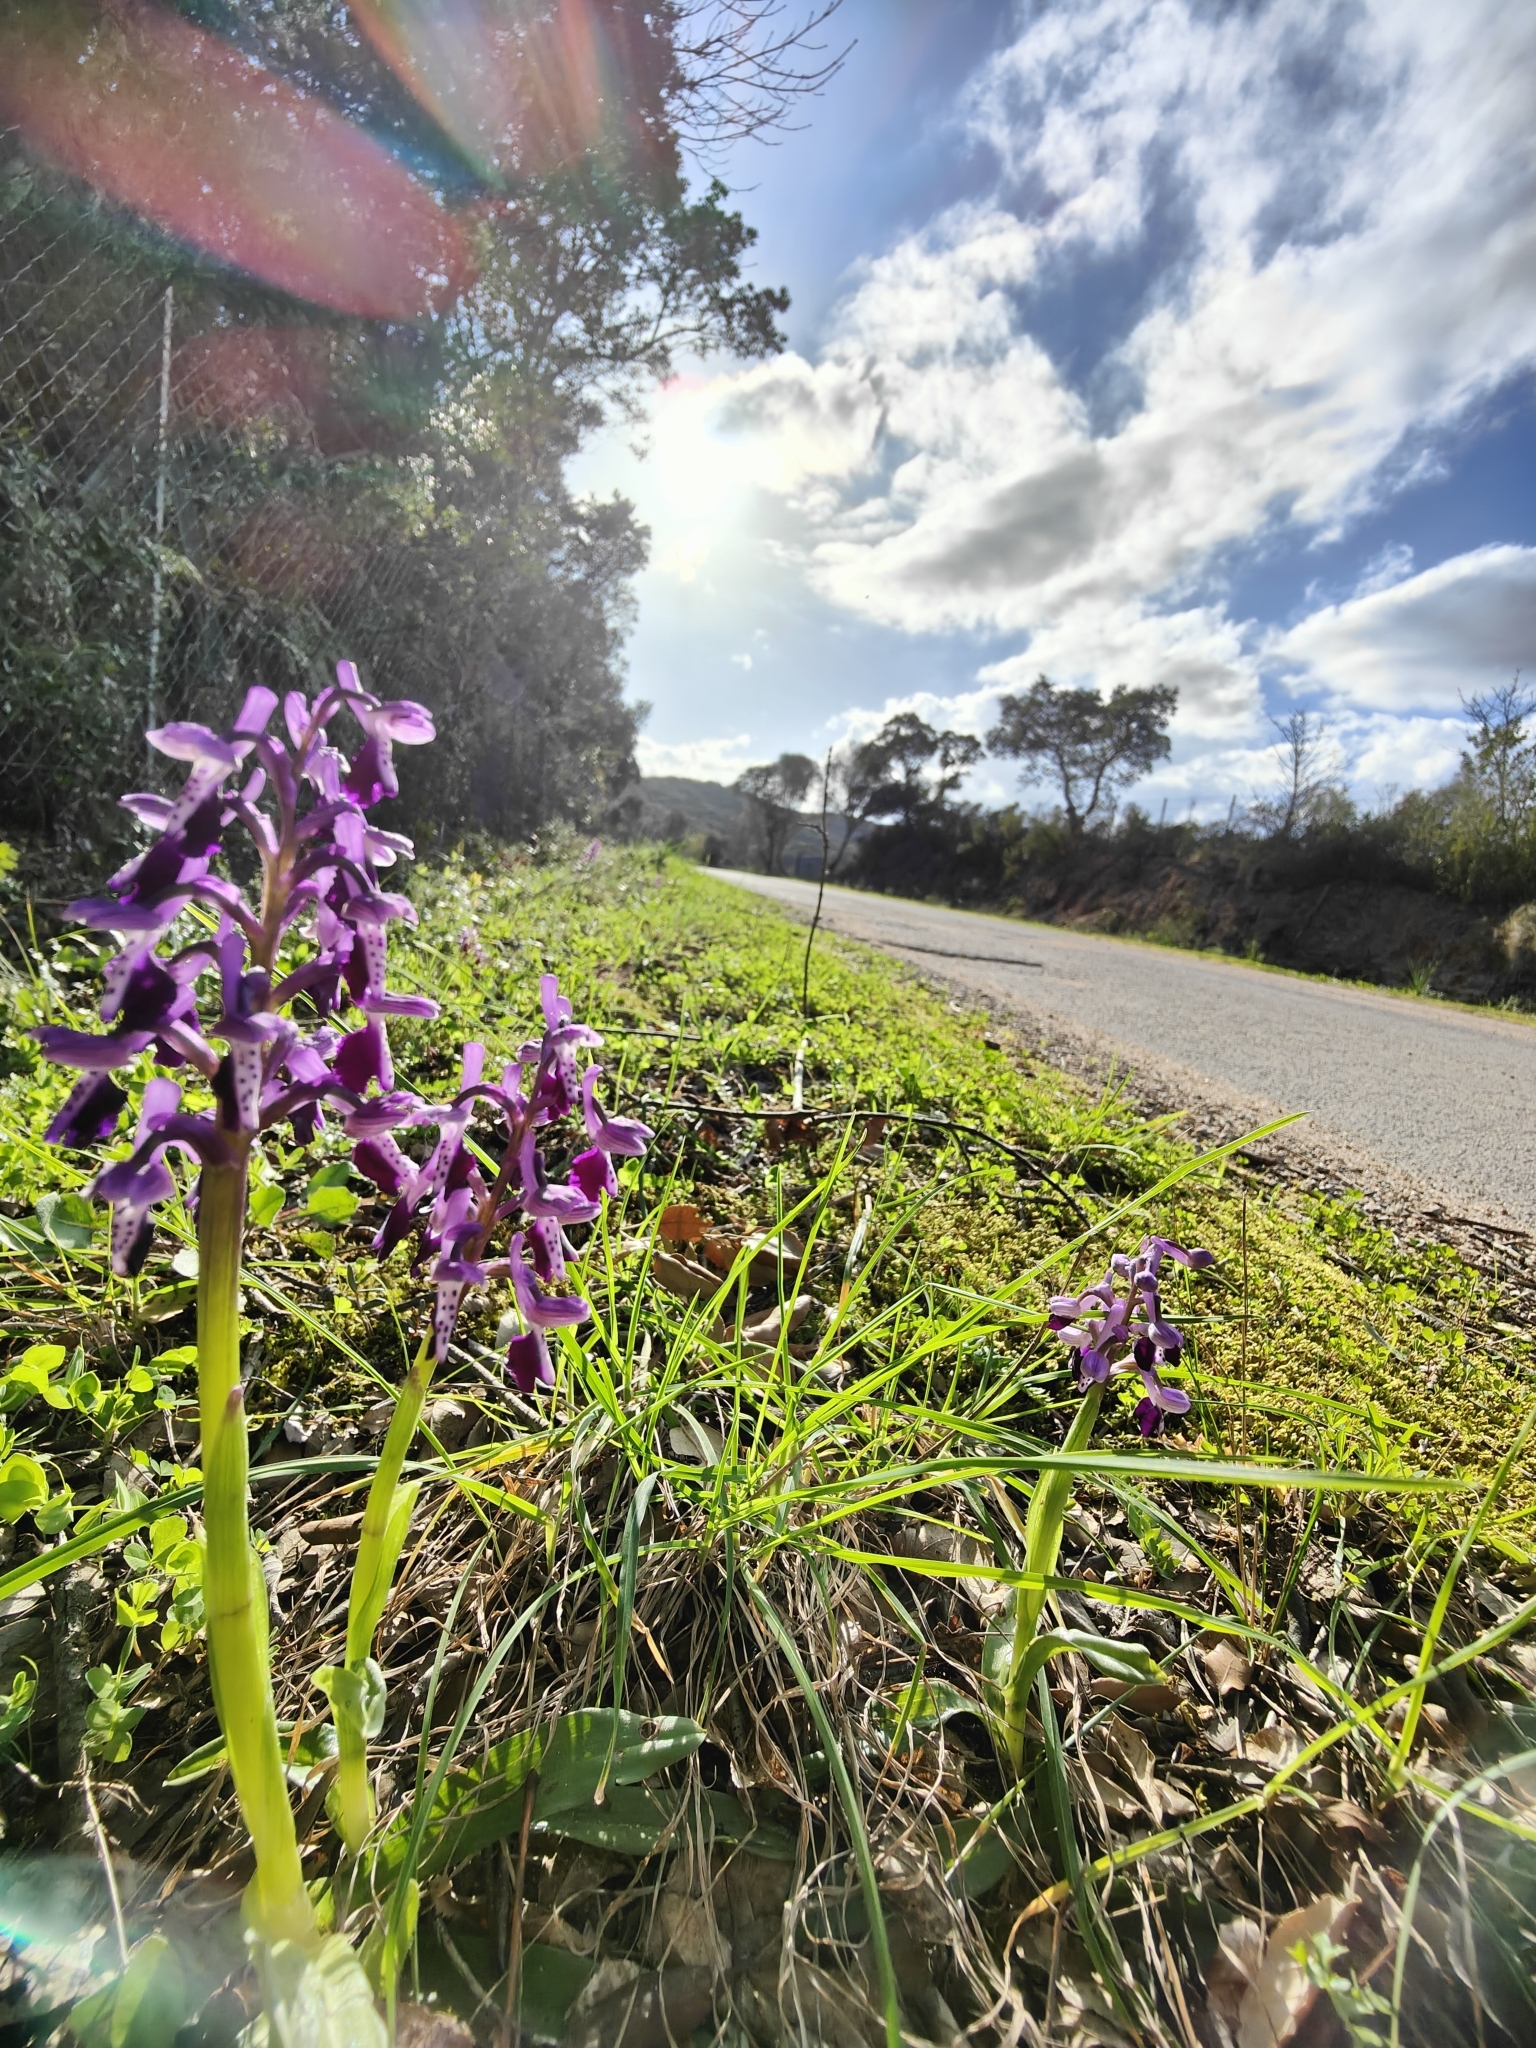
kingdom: Plantae
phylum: Tracheophyta
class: Liliopsida
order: Asparagales
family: Orchidaceae
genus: Anacamptis
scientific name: Anacamptis morio
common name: Green-winged orchid
